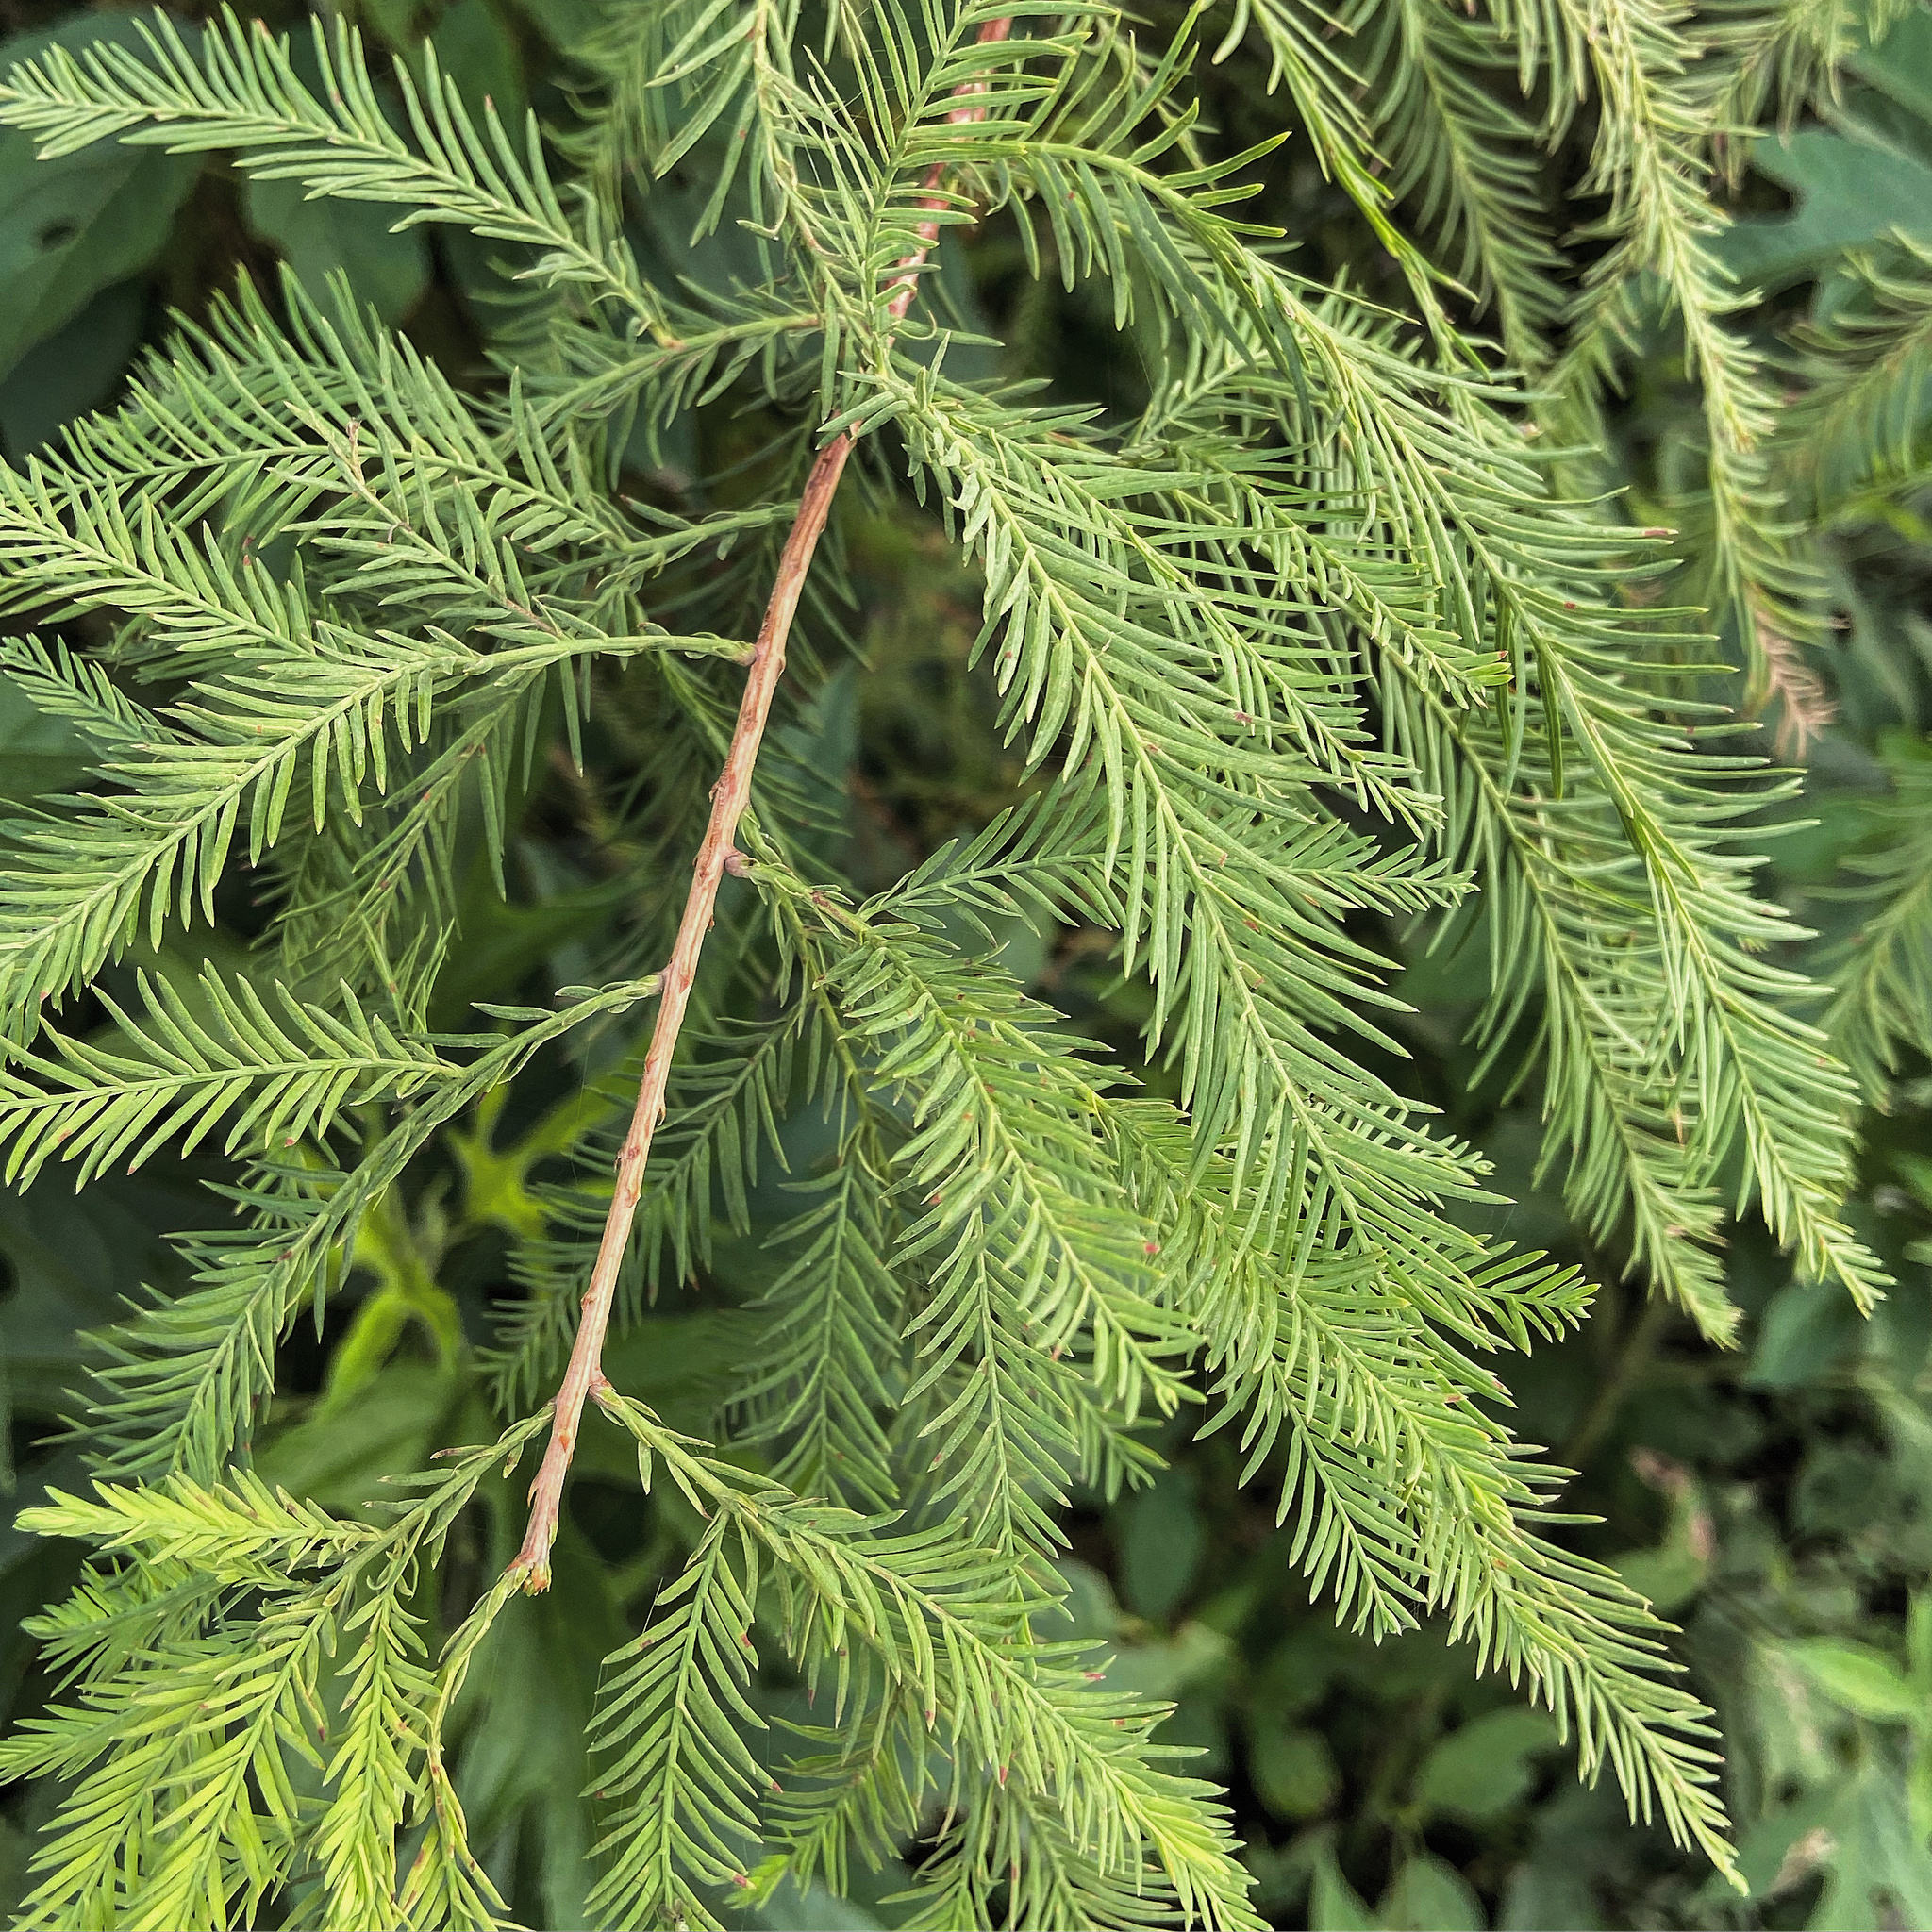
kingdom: Plantae
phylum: Tracheophyta
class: Pinopsida
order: Pinales
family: Cupressaceae
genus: Taxodium
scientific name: Taxodium distichum
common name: Bald cypress
